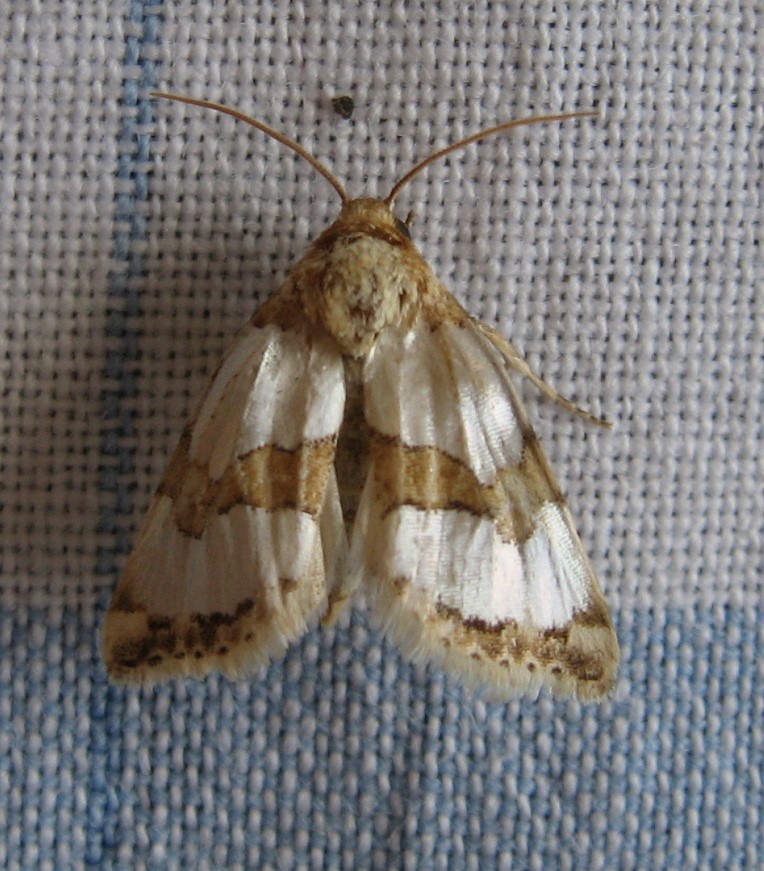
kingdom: Animalia
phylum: Arthropoda
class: Insecta
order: Lepidoptera
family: Noctuidae
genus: Schinia
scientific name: Schinia chrysellus
